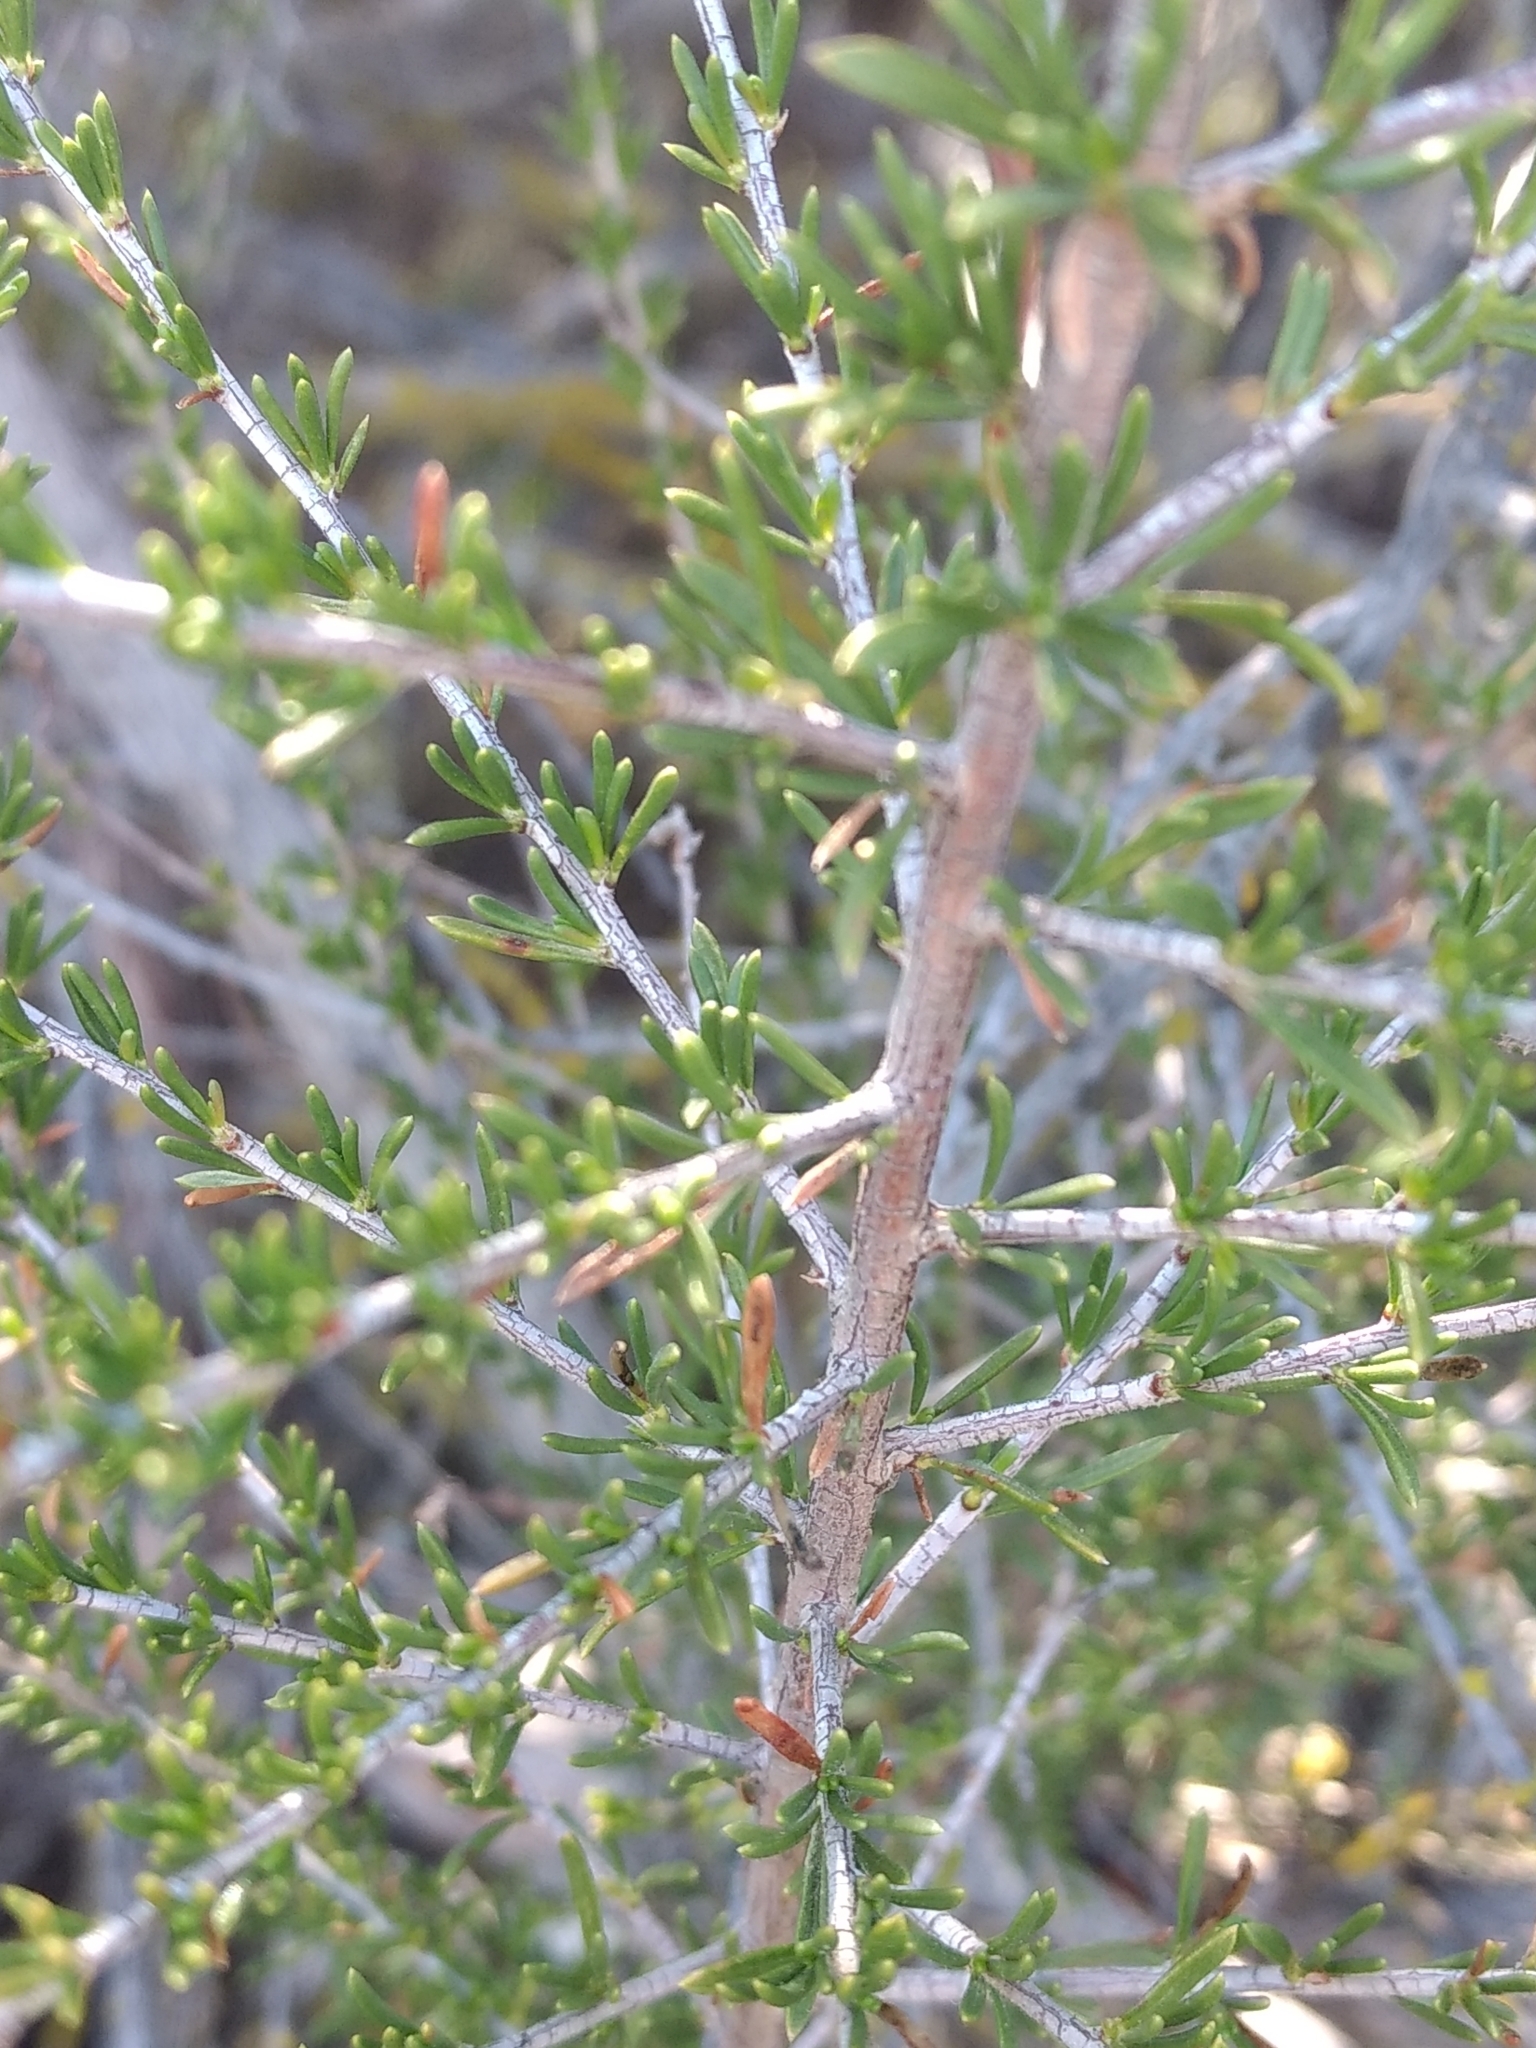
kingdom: Plantae
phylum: Tracheophyta
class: Magnoliopsida
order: Rosales
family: Rosaceae
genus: Adenostoma
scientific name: Adenostoma fasciculatum
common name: Chamise
